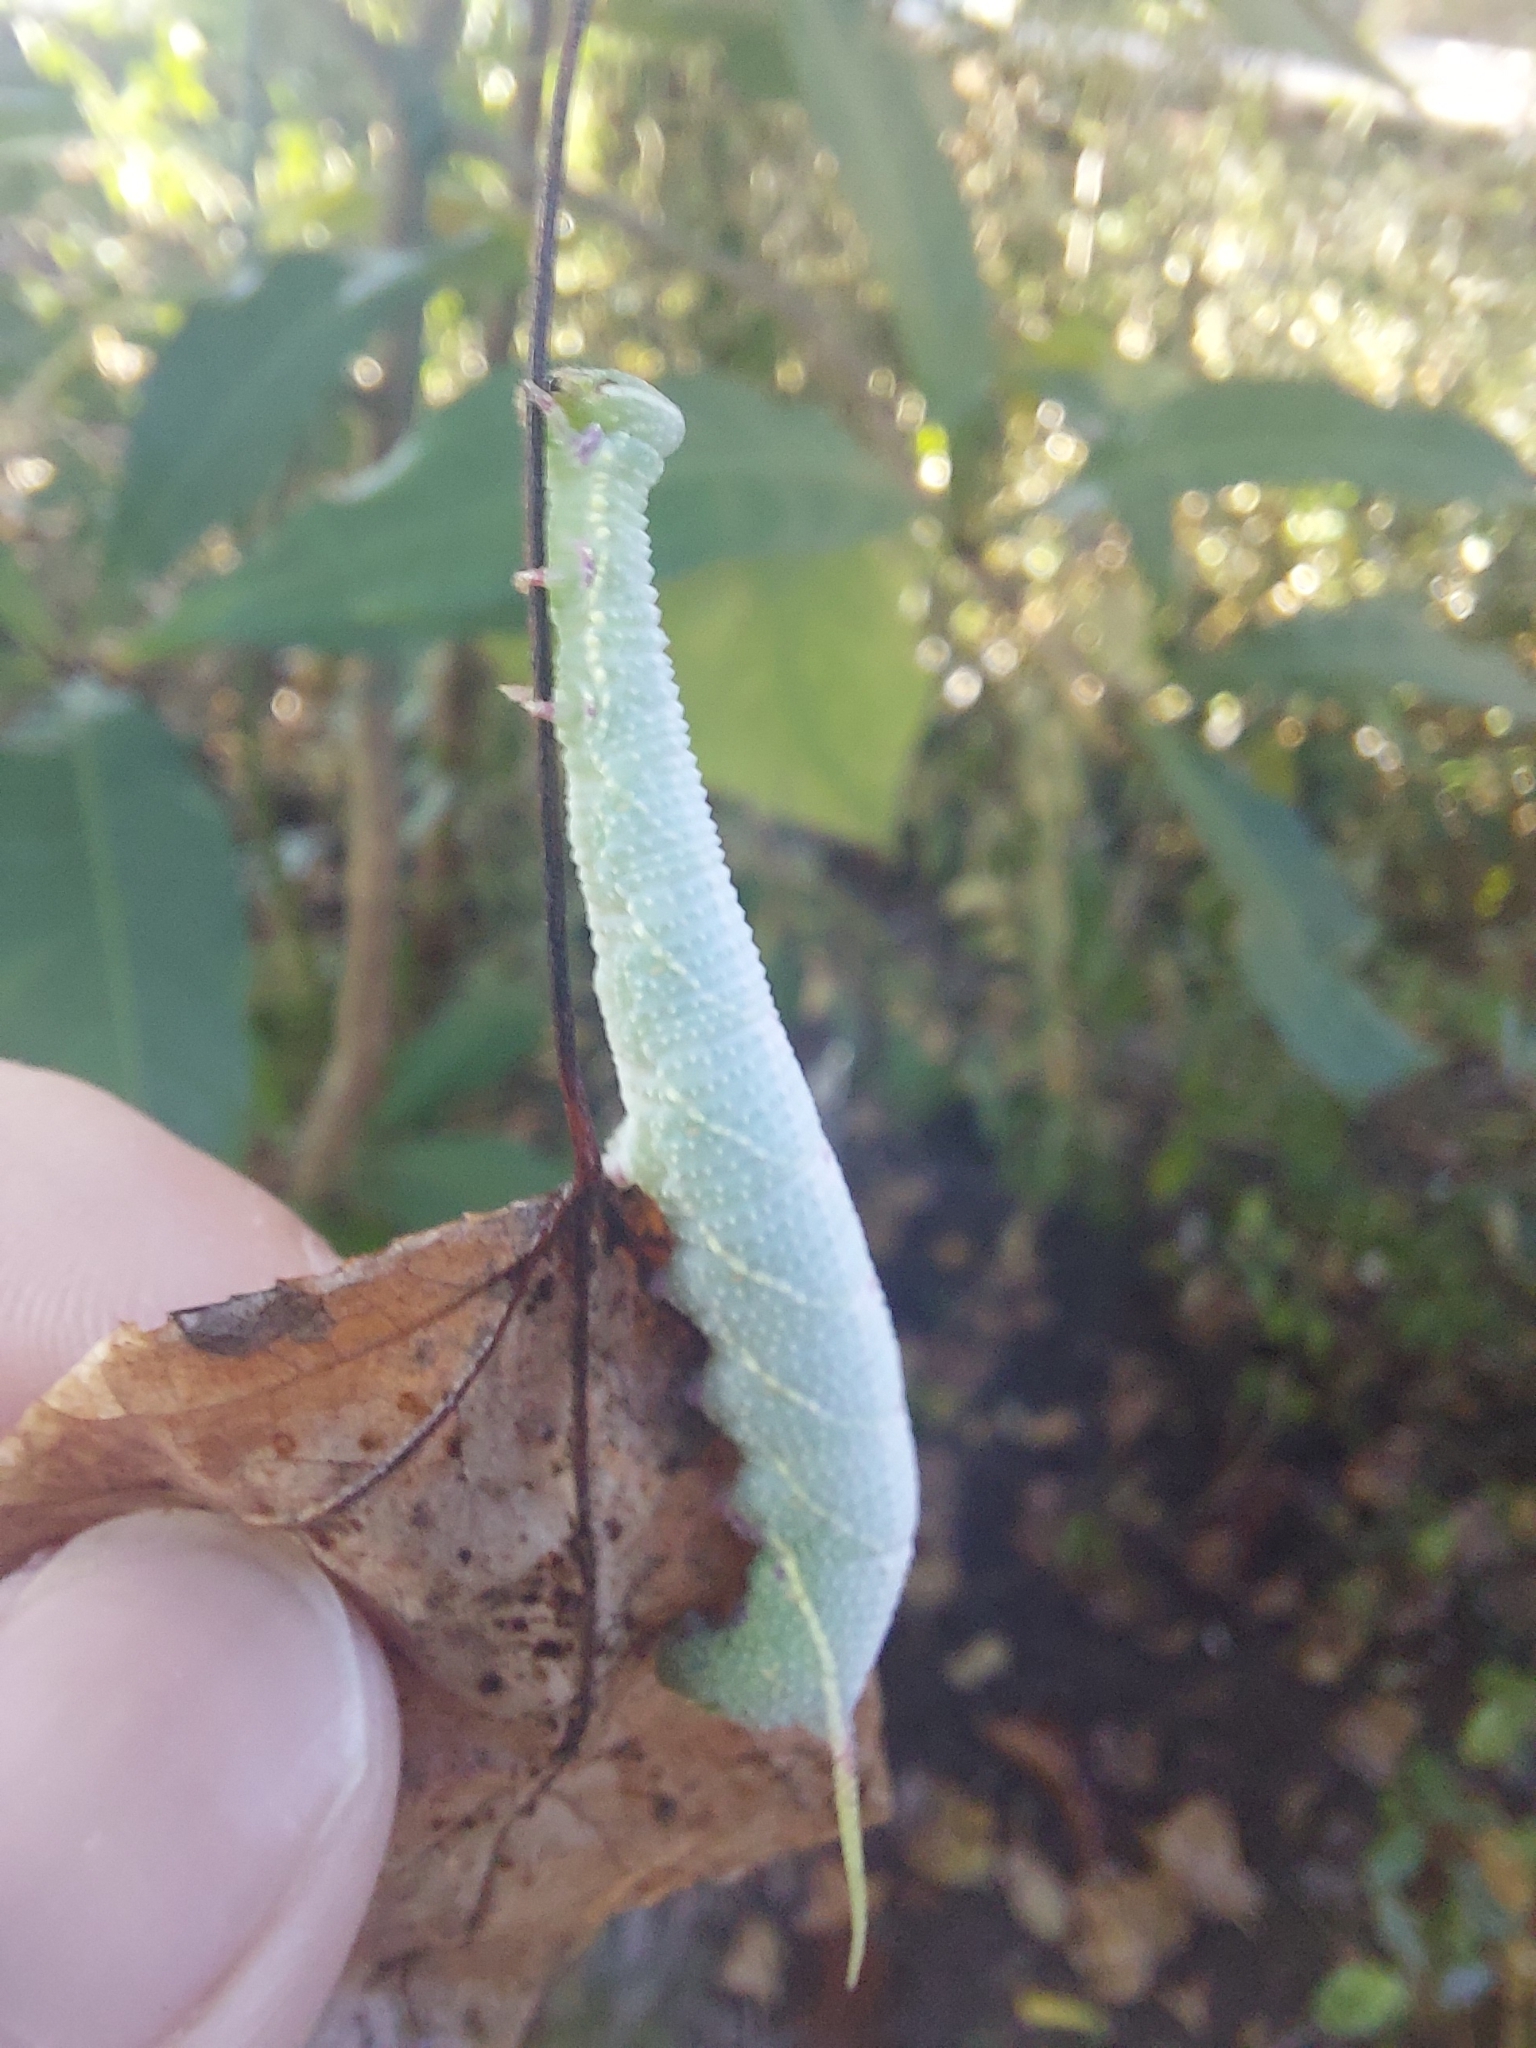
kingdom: Animalia
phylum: Arthropoda
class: Insecta
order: Lepidoptera
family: Sphingidae
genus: Cypoides
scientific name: Cypoides chinensis
